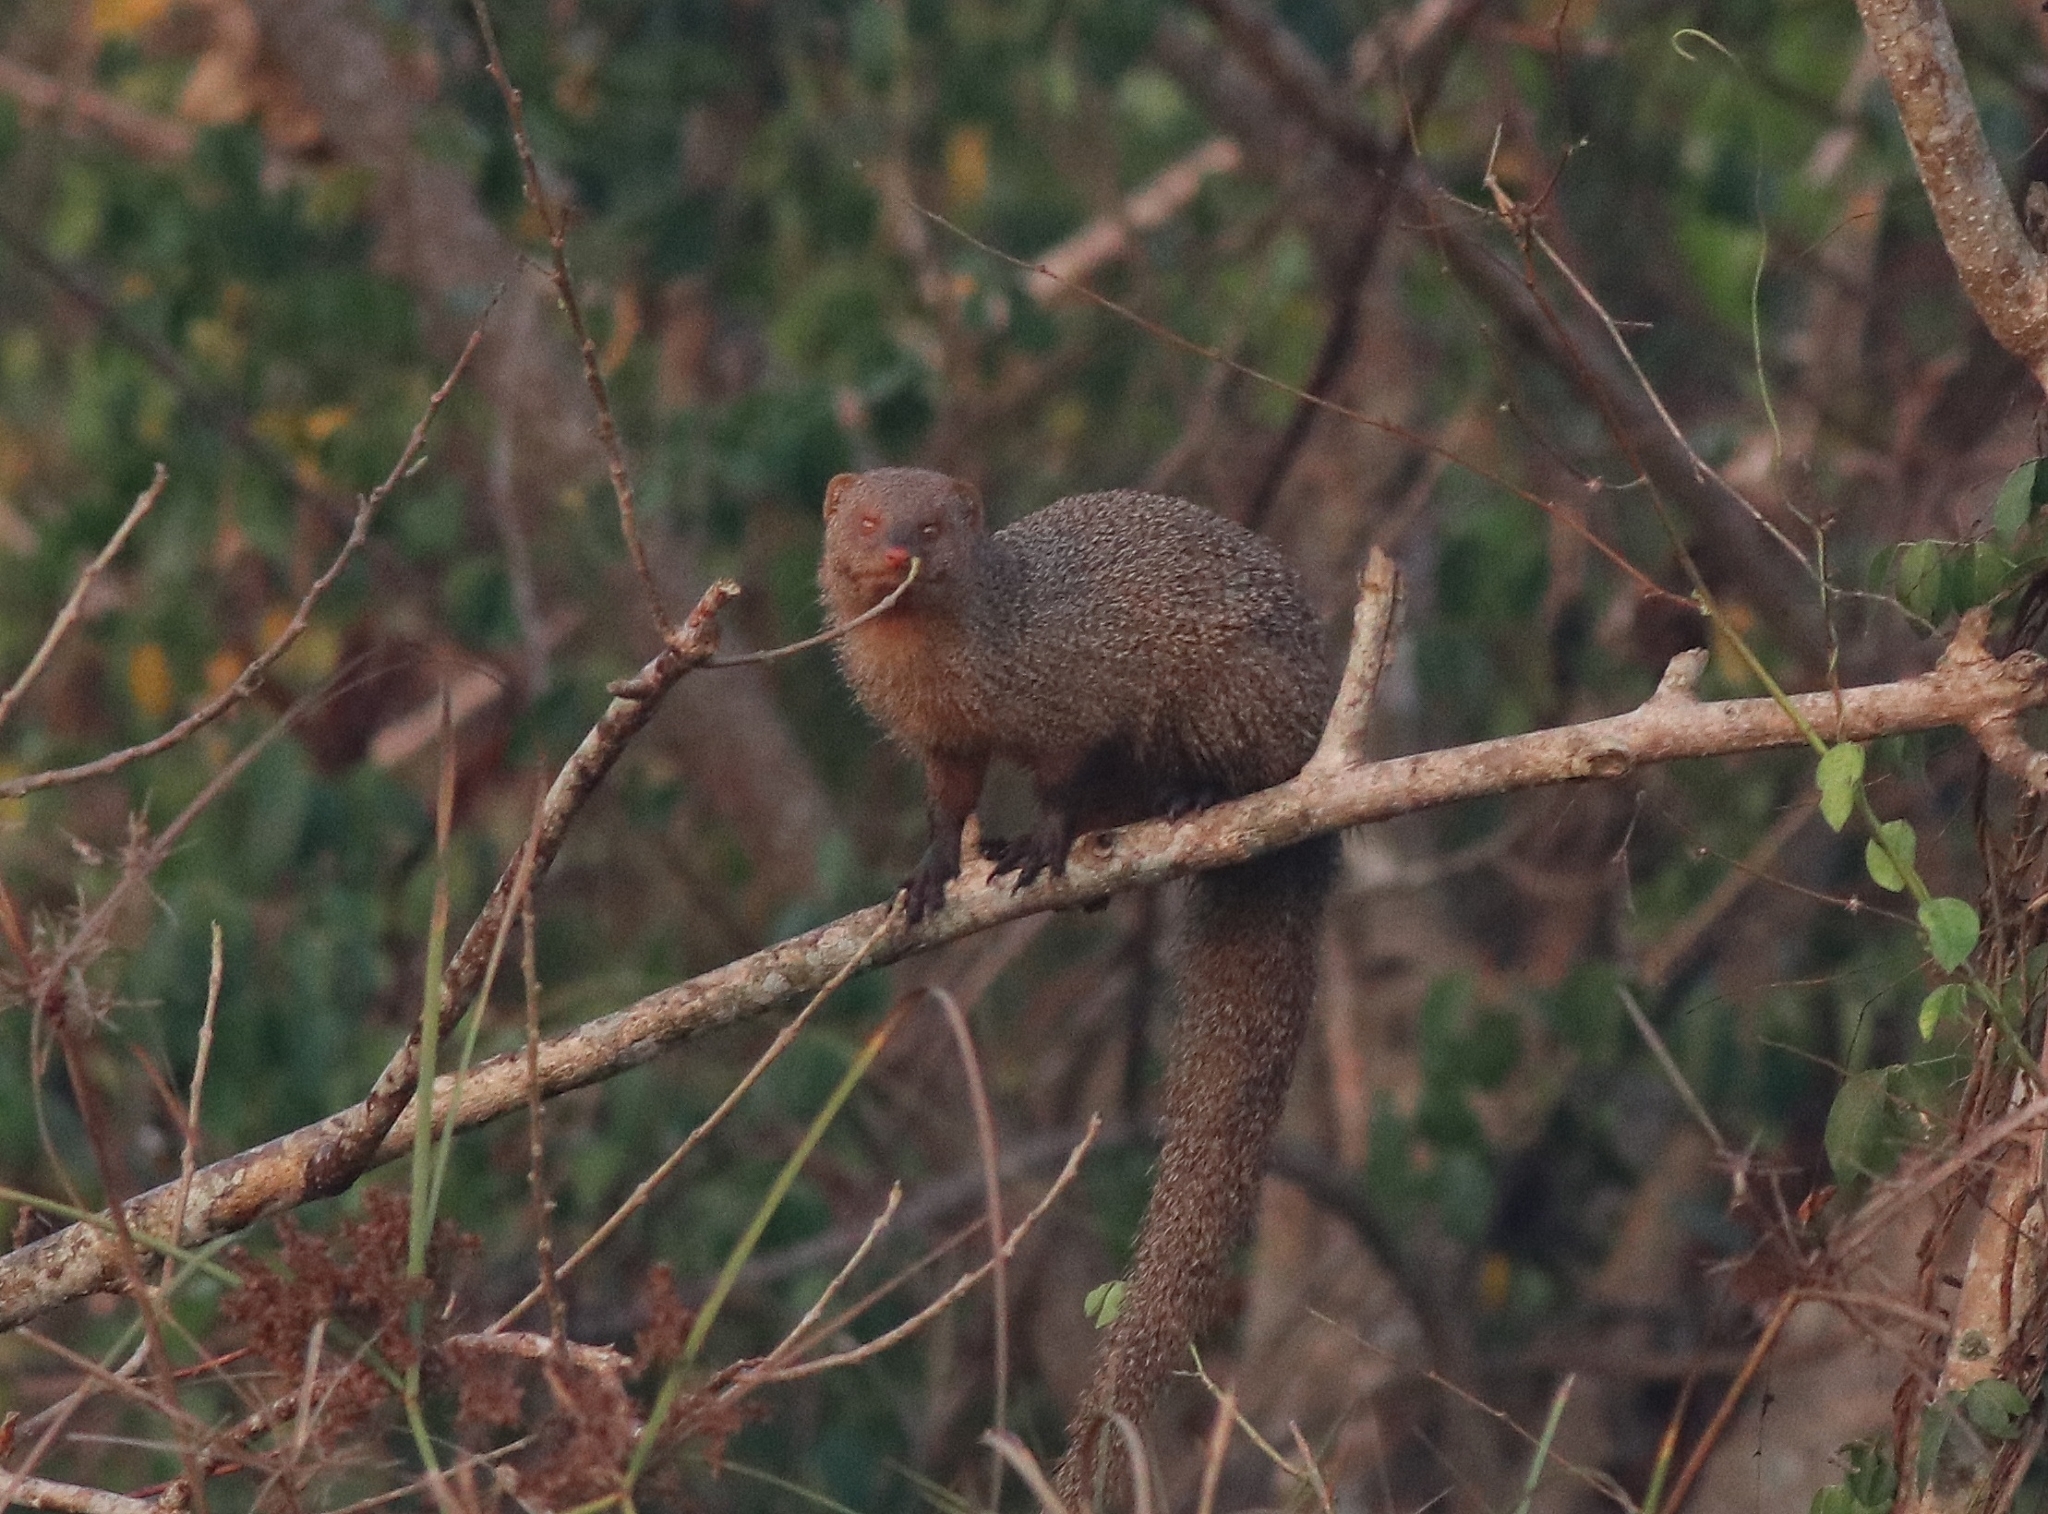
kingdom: Animalia
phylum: Chordata
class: Mammalia
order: Carnivora
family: Herpestidae
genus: Herpestes
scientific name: Herpestes edwardsi
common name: Indian gray mongoose
